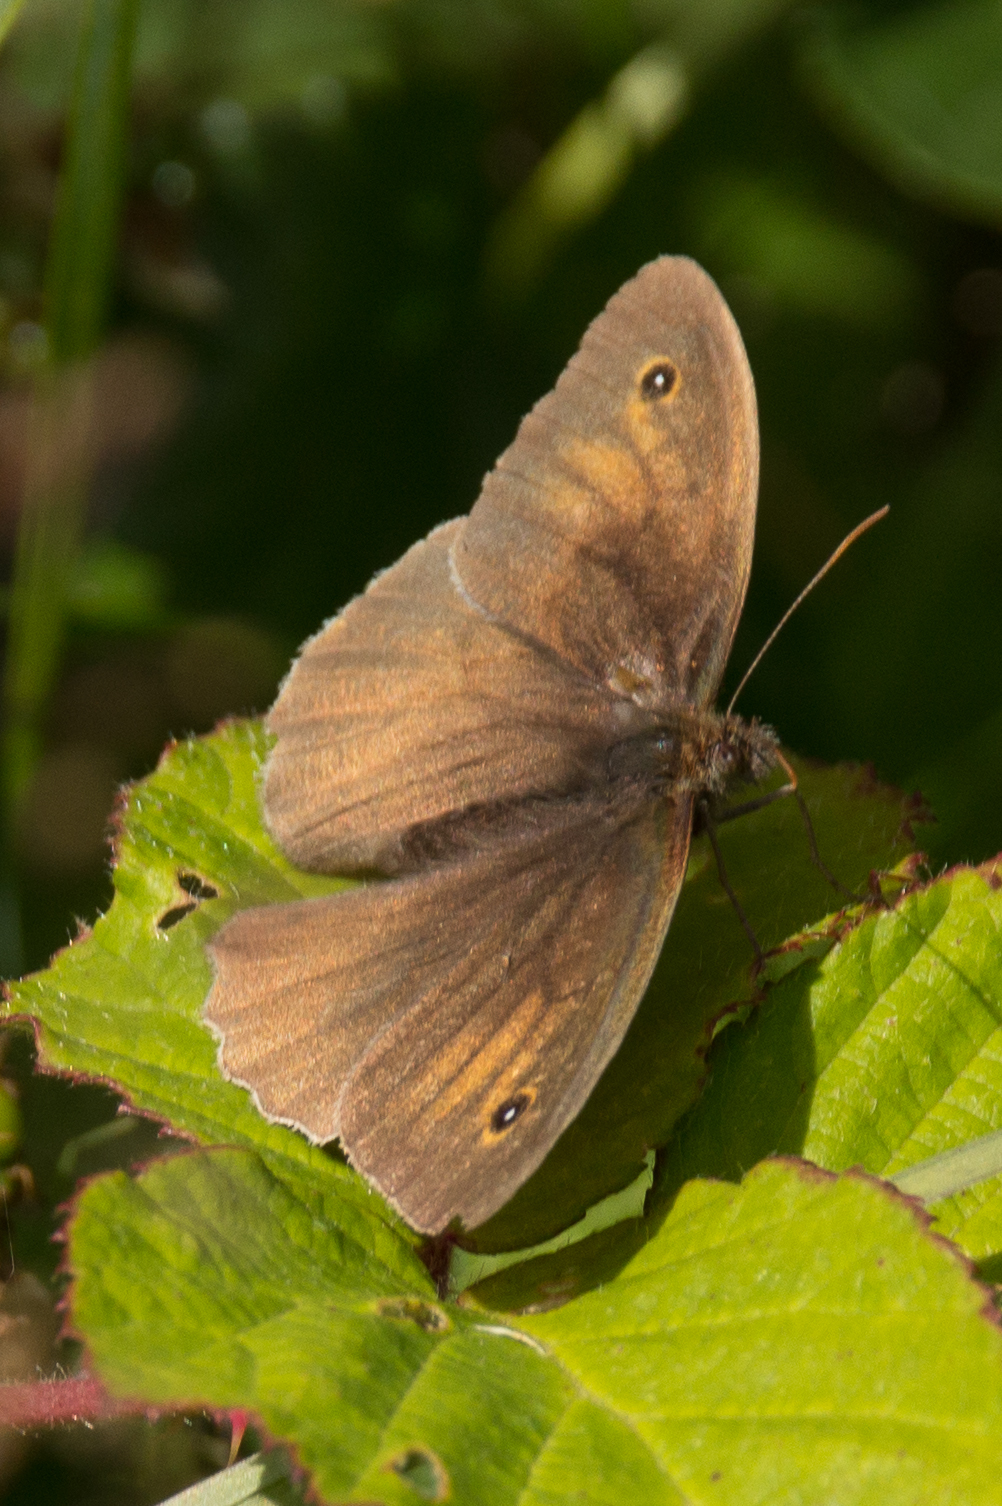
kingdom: Animalia
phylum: Arthropoda
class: Insecta
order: Lepidoptera
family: Nymphalidae
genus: Maniola
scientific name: Maniola jurtina
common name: Meadow brown
